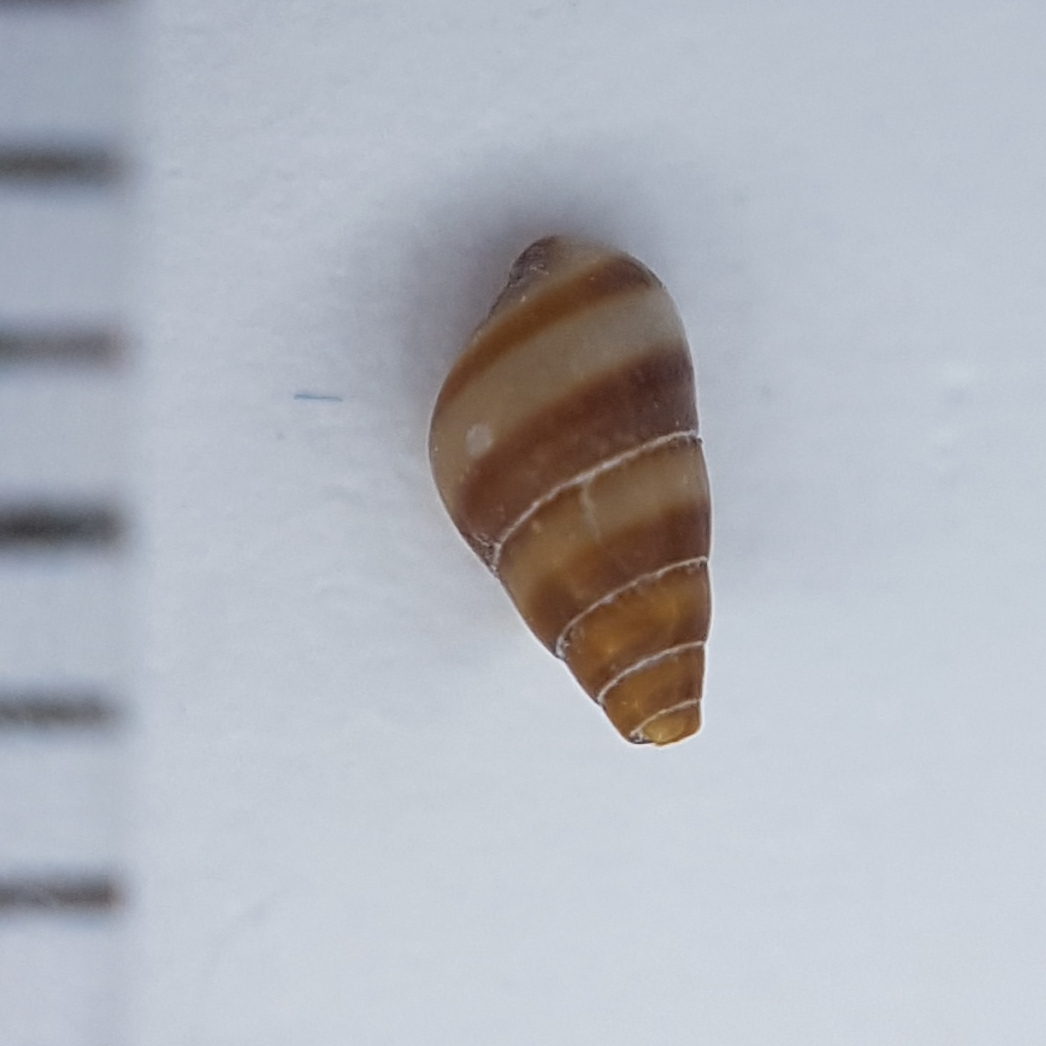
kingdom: Animalia
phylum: Mollusca
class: Gastropoda
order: Littorinimorpha
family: Rissoidae
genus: Cingula
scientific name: Cingula trifasciata
